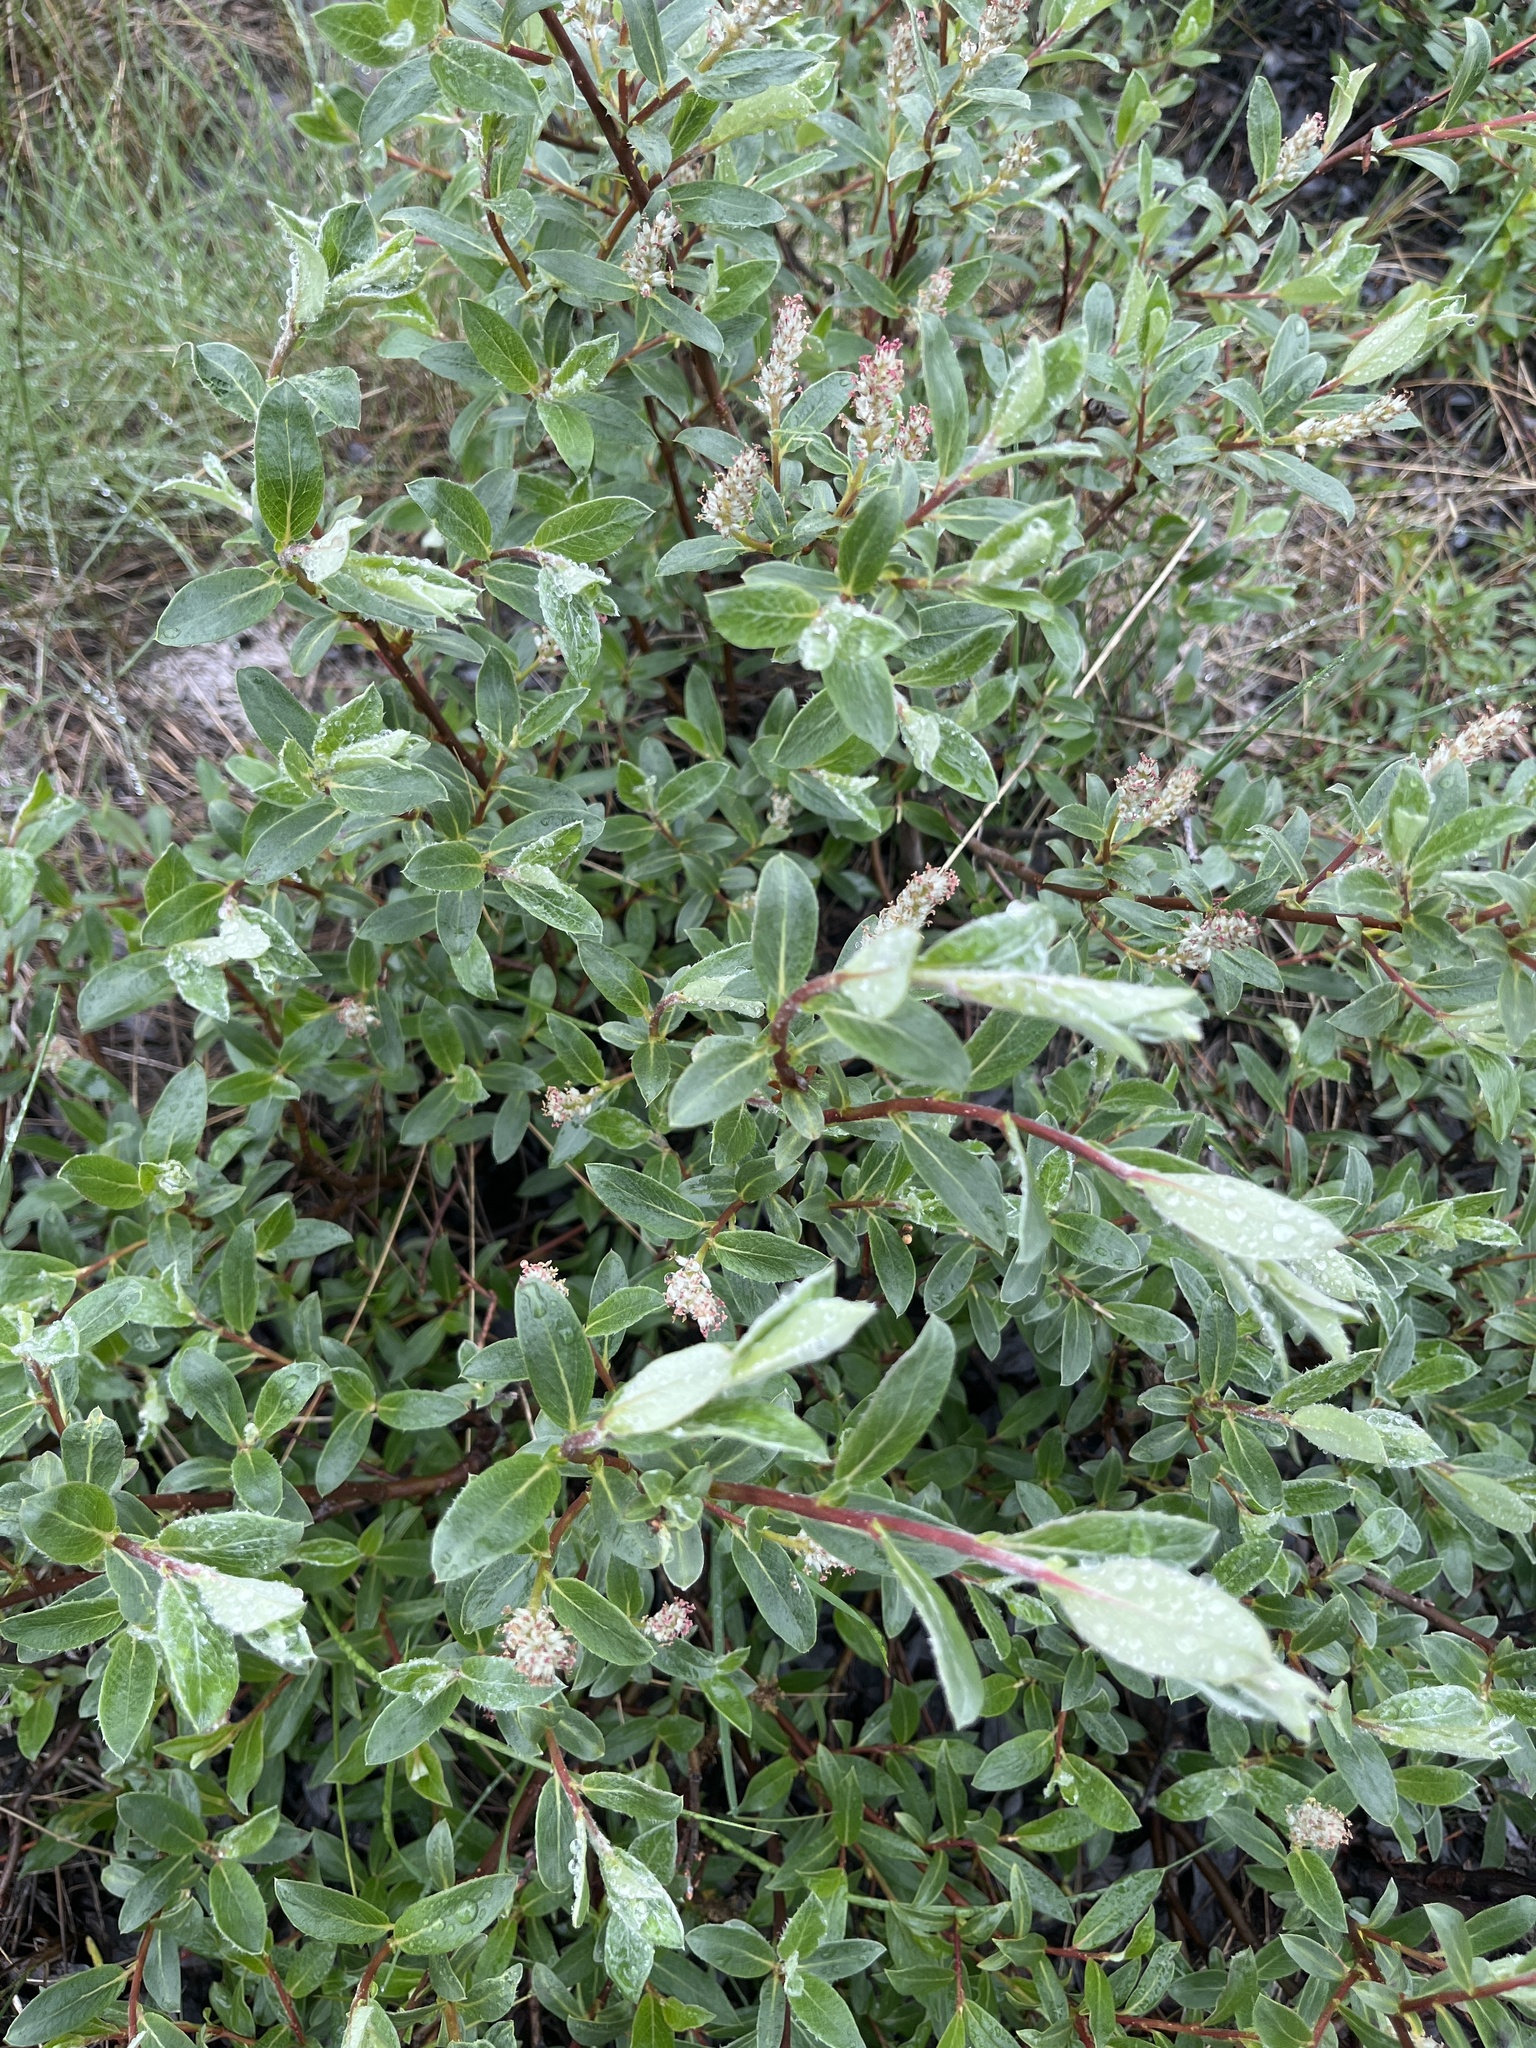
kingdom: Plantae
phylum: Tracheophyta
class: Magnoliopsida
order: Malpighiales
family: Salicaceae
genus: Salix
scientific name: Salix glauca
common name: Glaucous willow
